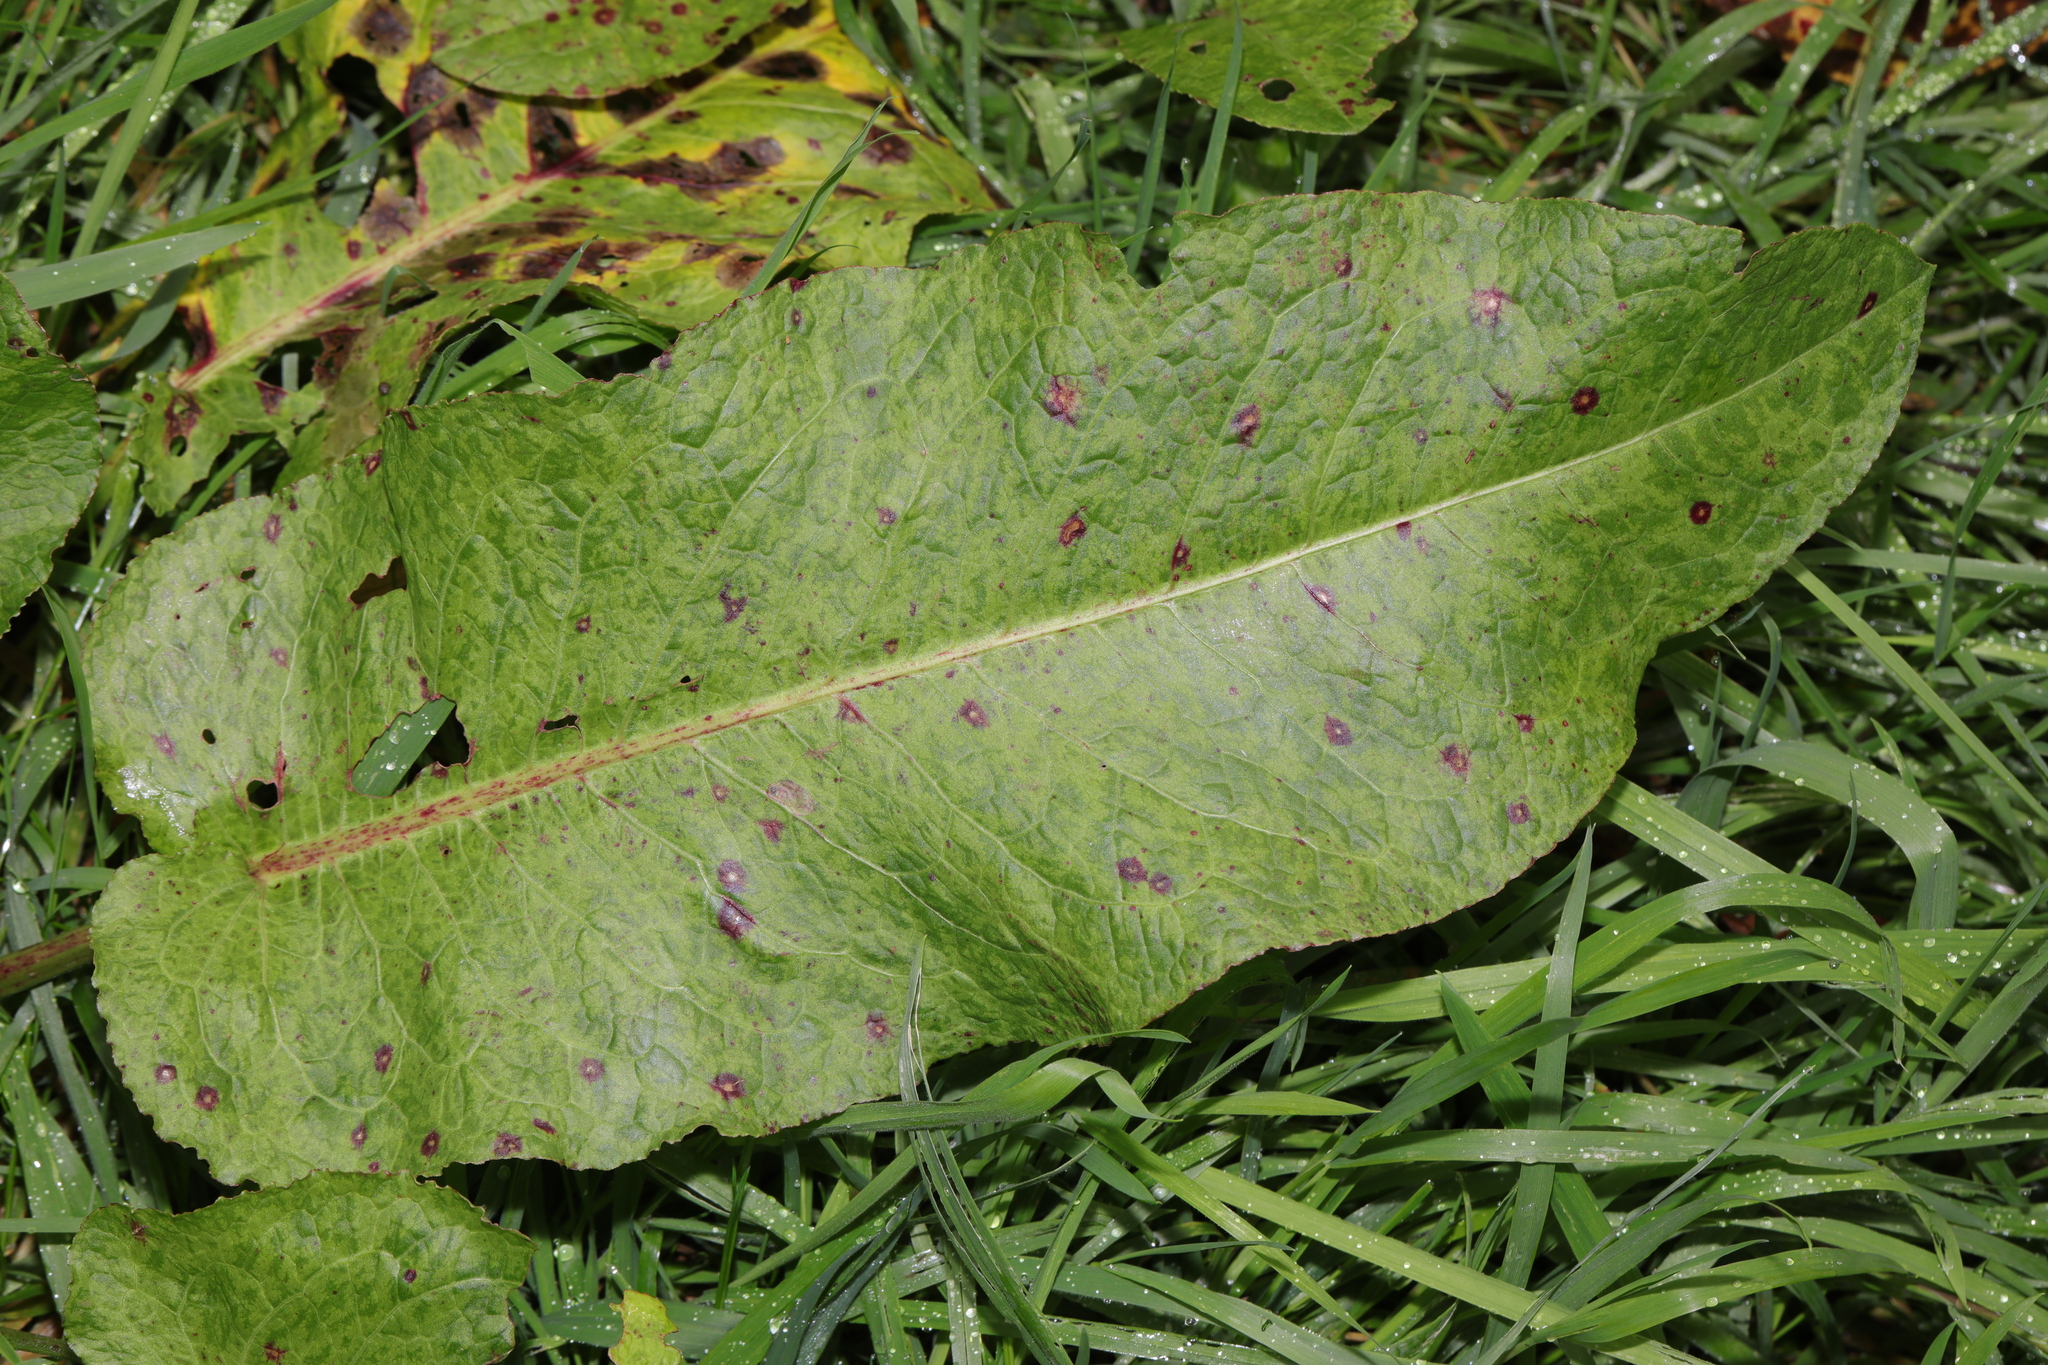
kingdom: Plantae
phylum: Tracheophyta
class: Magnoliopsida
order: Caryophyllales
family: Polygonaceae
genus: Rumex
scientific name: Rumex obtusifolius
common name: Bitter dock
